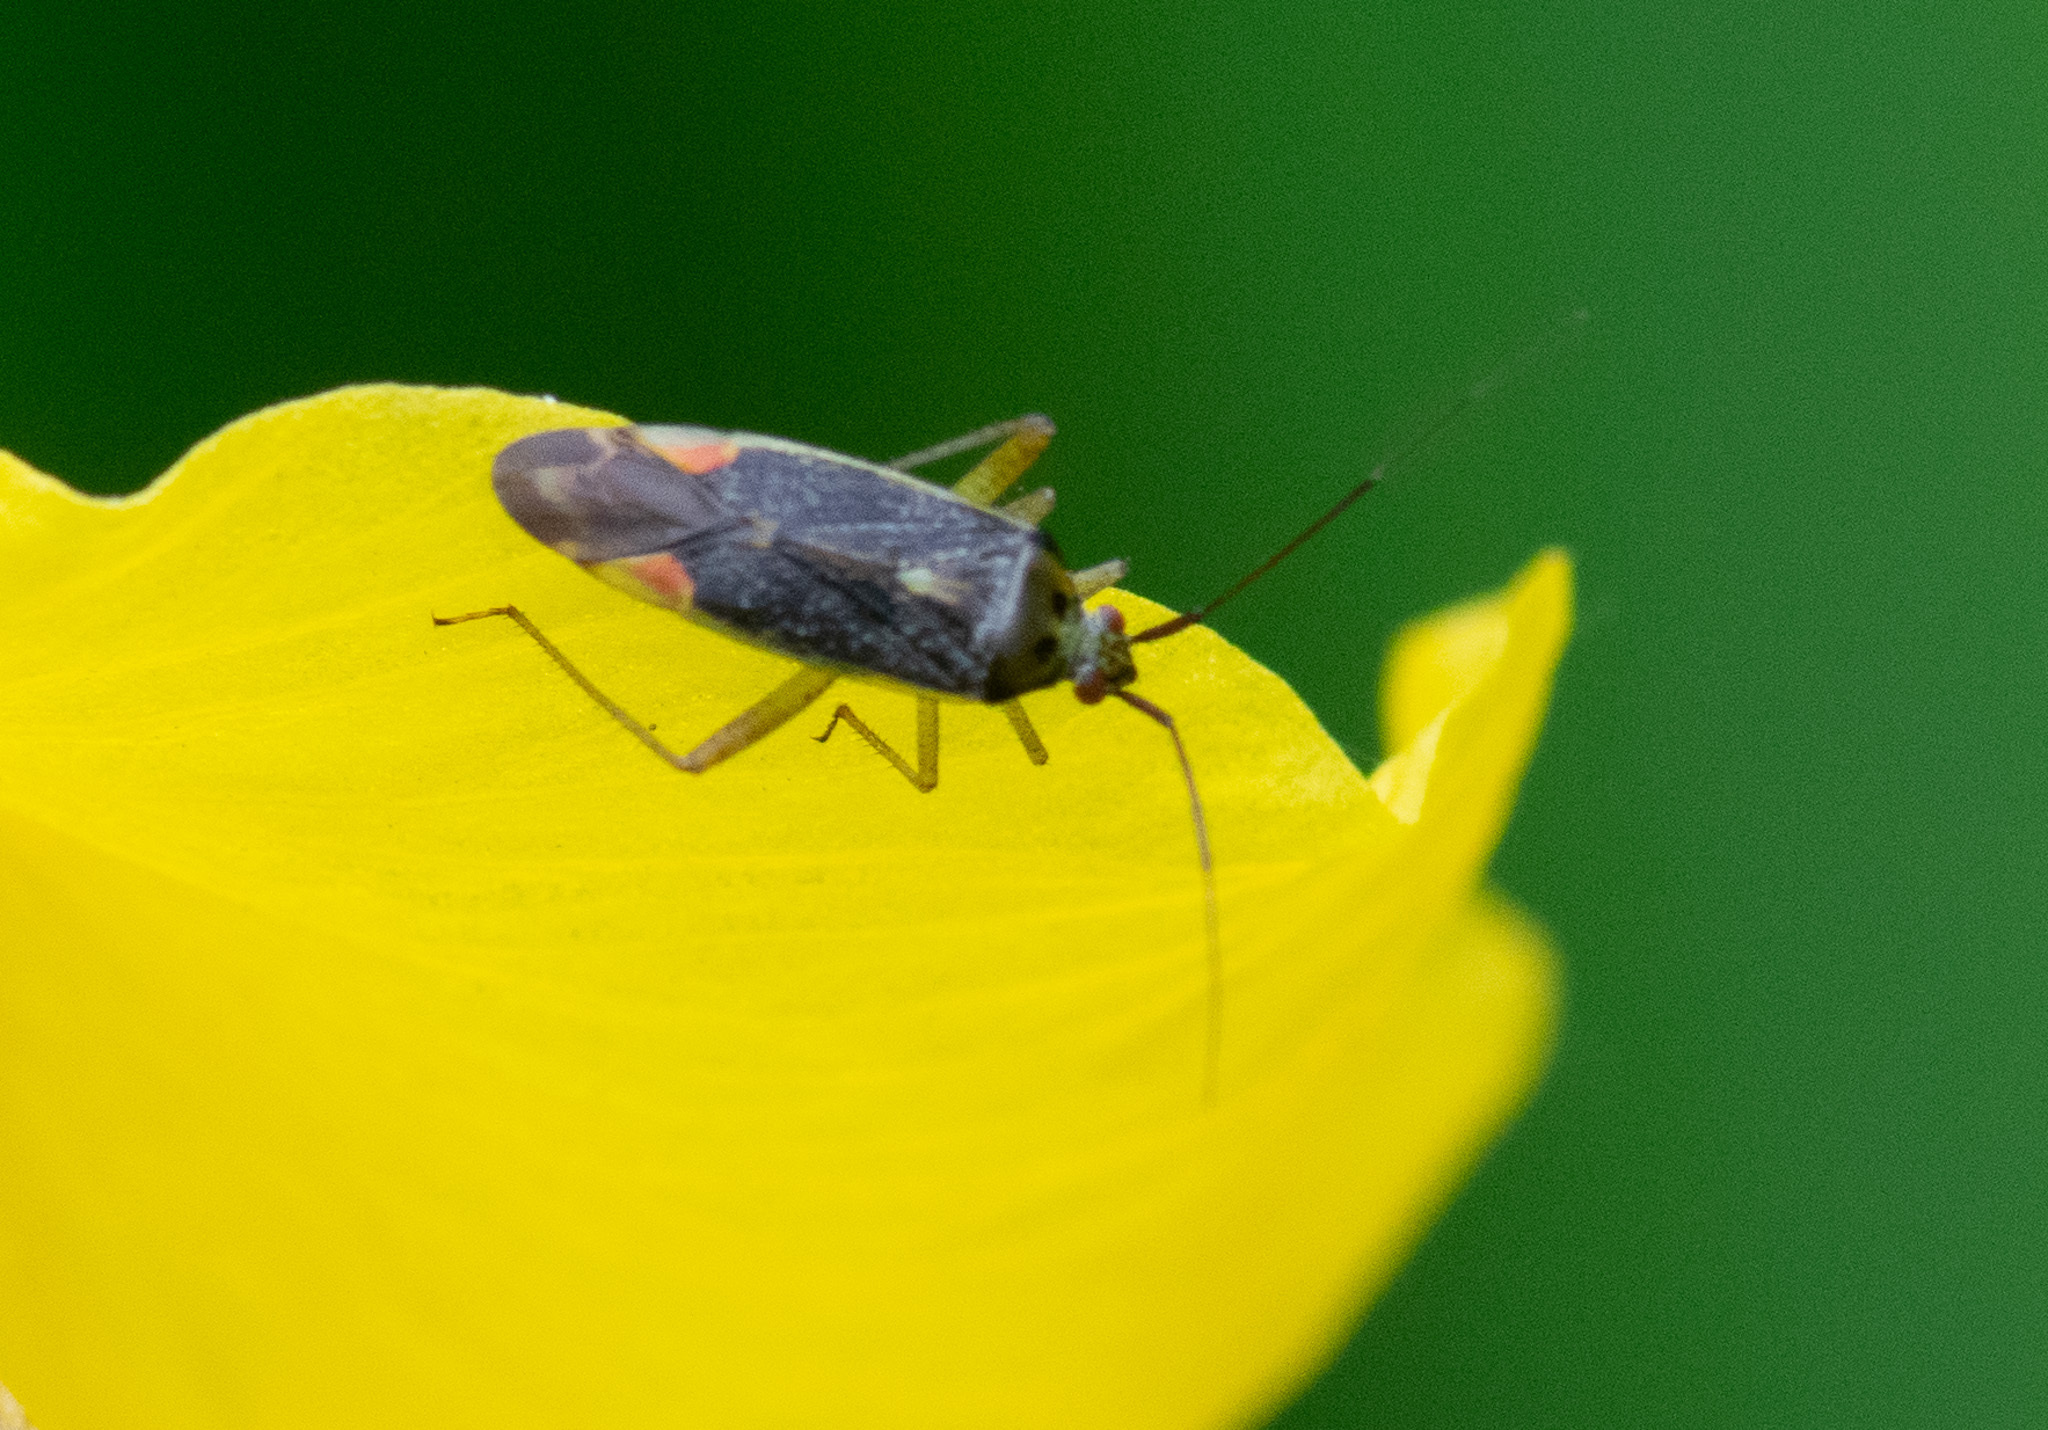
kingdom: Animalia
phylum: Arthropoda
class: Insecta
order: Hemiptera
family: Miridae
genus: Closterotomus
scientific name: Closterotomus trivialis
